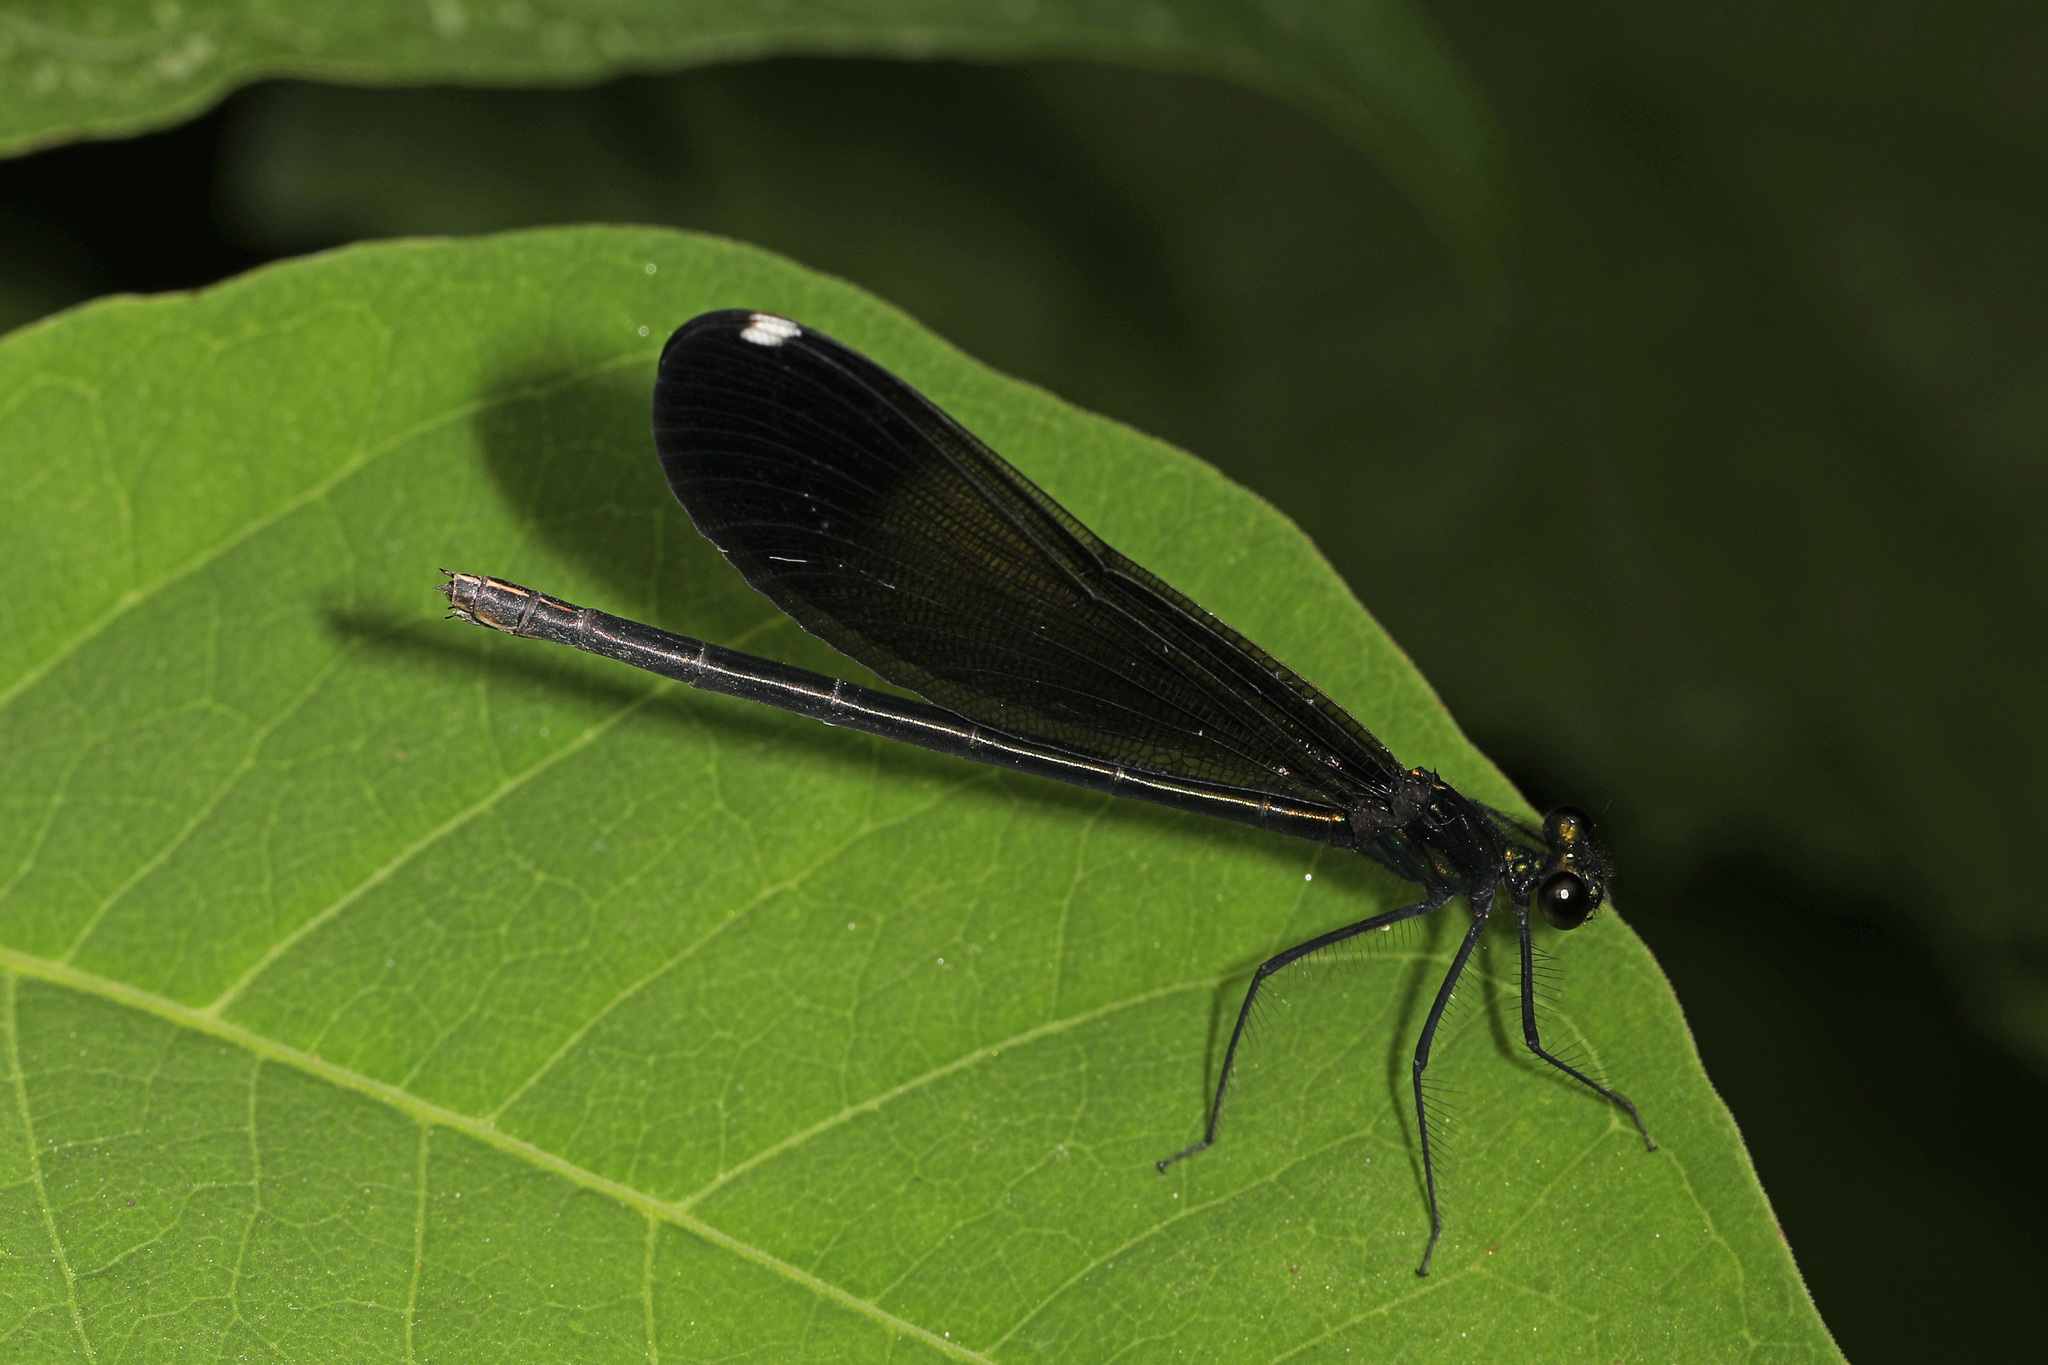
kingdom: Animalia
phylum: Arthropoda
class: Insecta
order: Odonata
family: Calopterygidae
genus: Calopteryx
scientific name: Calopteryx maculata
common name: Ebony jewelwing
